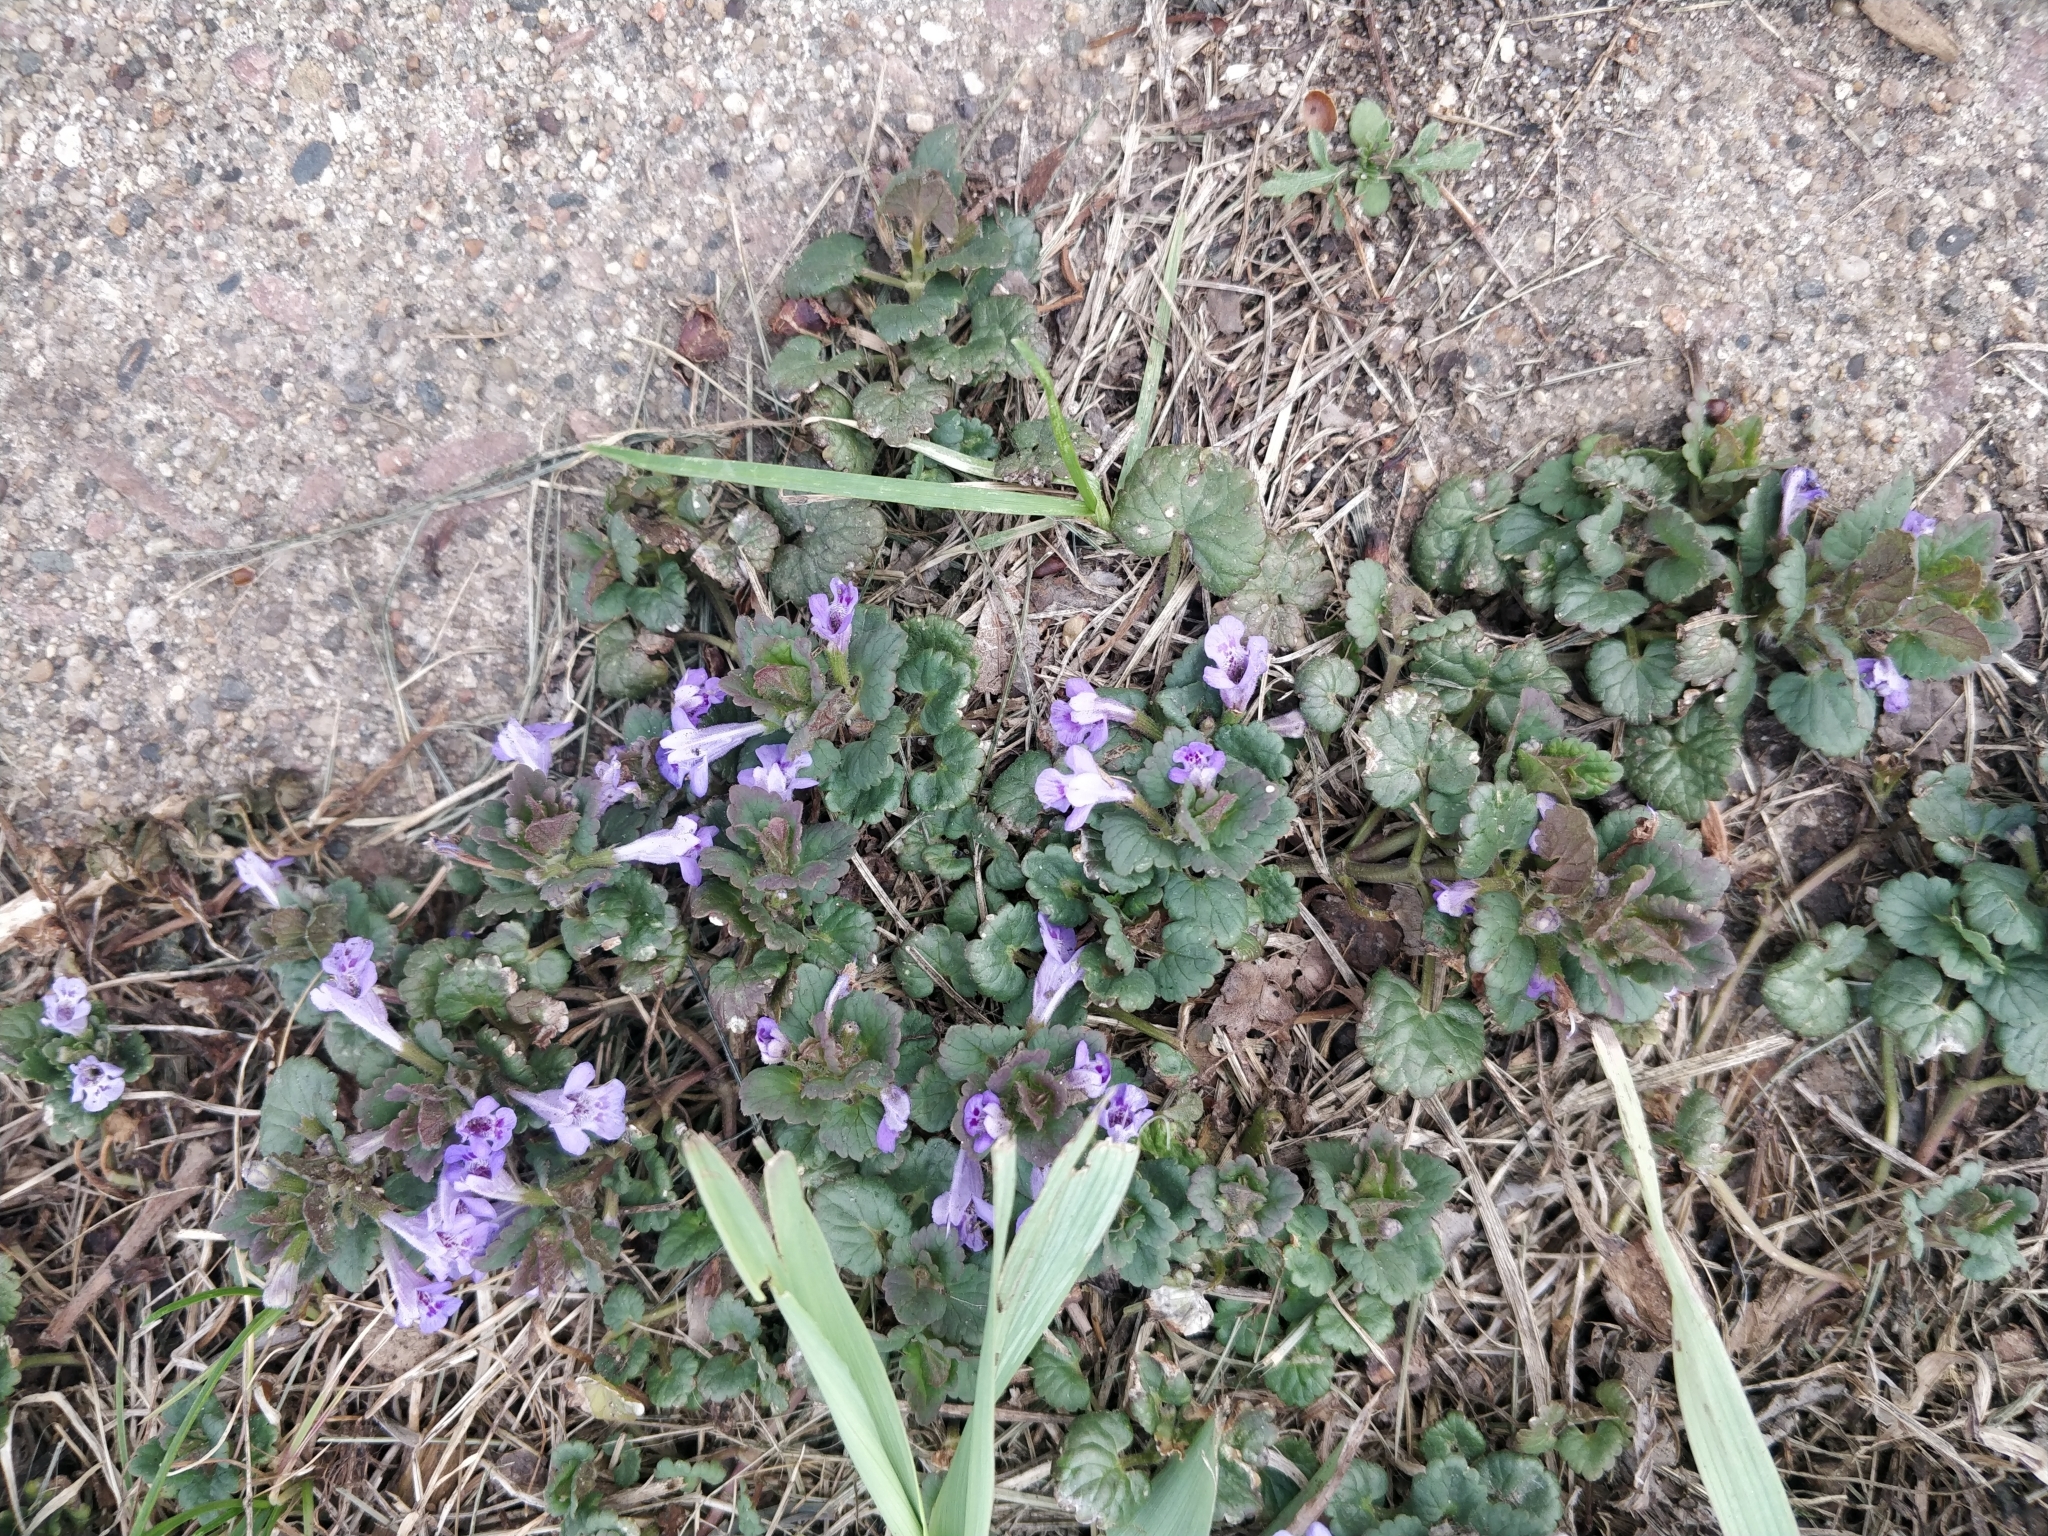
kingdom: Plantae
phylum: Tracheophyta
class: Magnoliopsida
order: Lamiales
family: Lamiaceae
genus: Glechoma
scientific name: Glechoma hederacea
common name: Ground ivy
